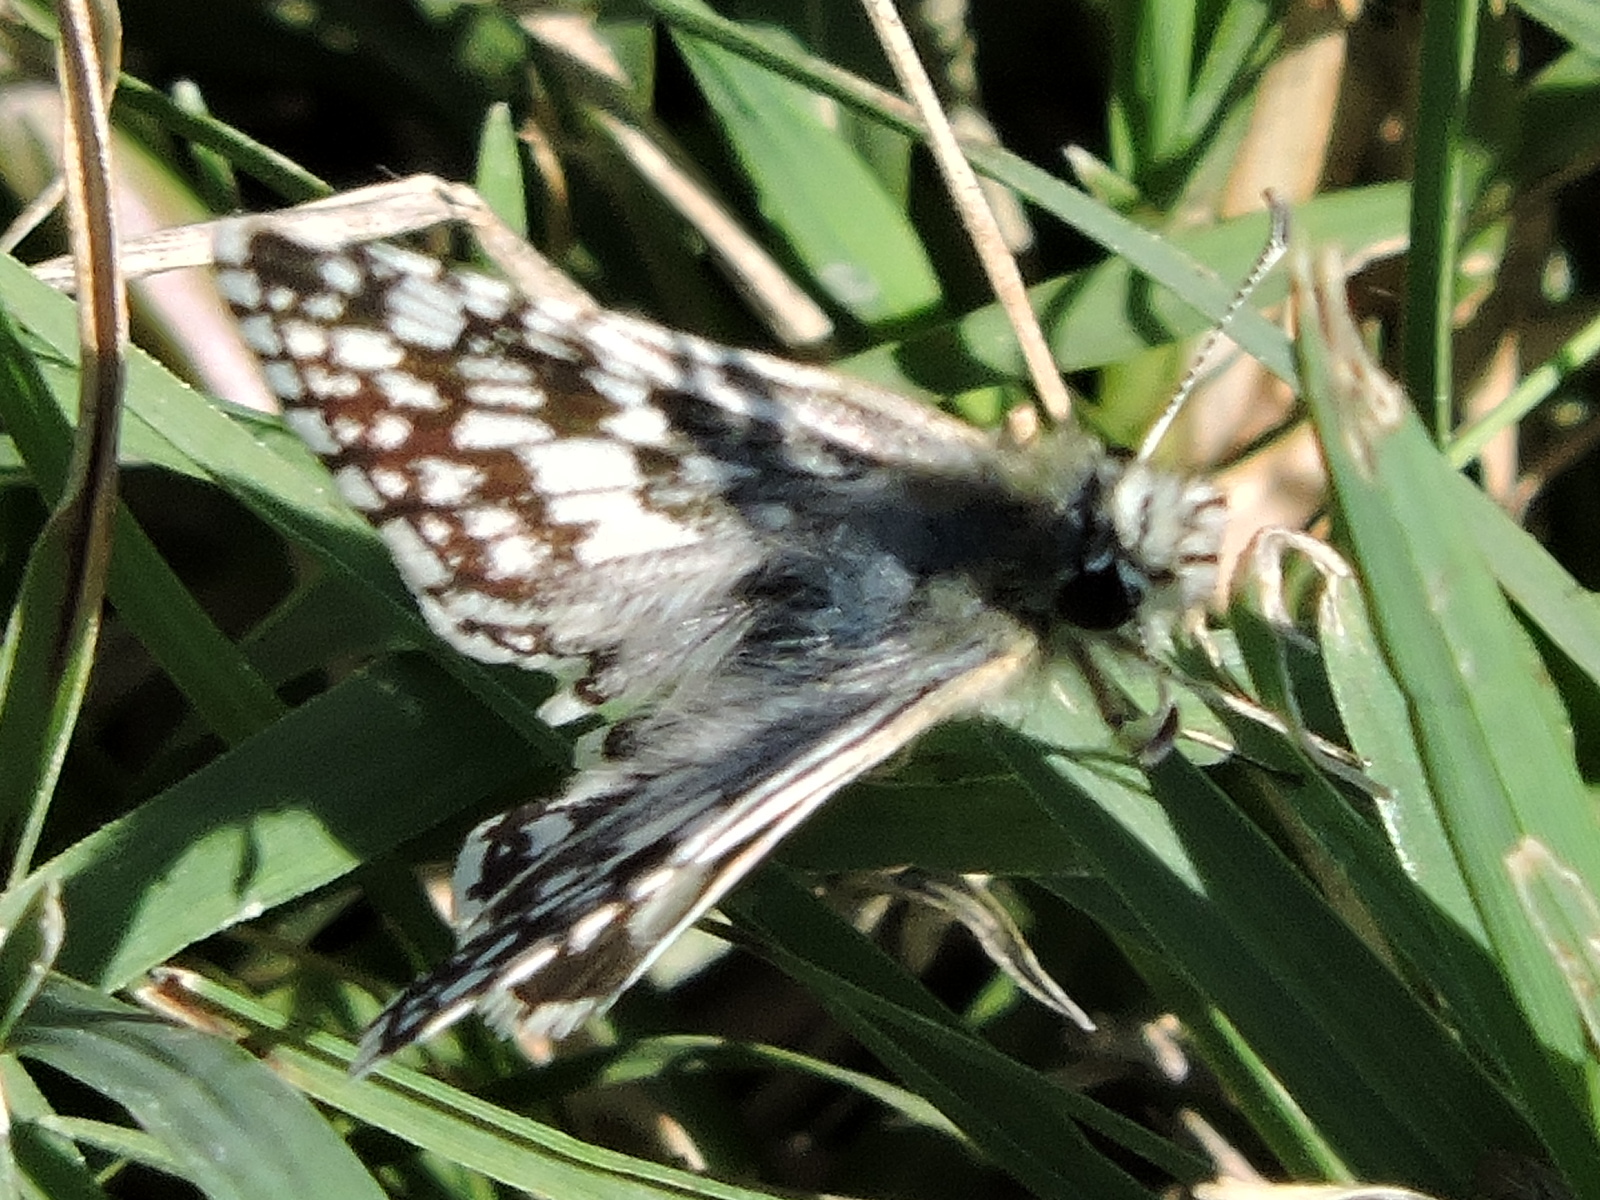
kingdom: Animalia
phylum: Arthropoda
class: Insecta
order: Lepidoptera
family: Hesperiidae
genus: Burnsius
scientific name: Burnsius
